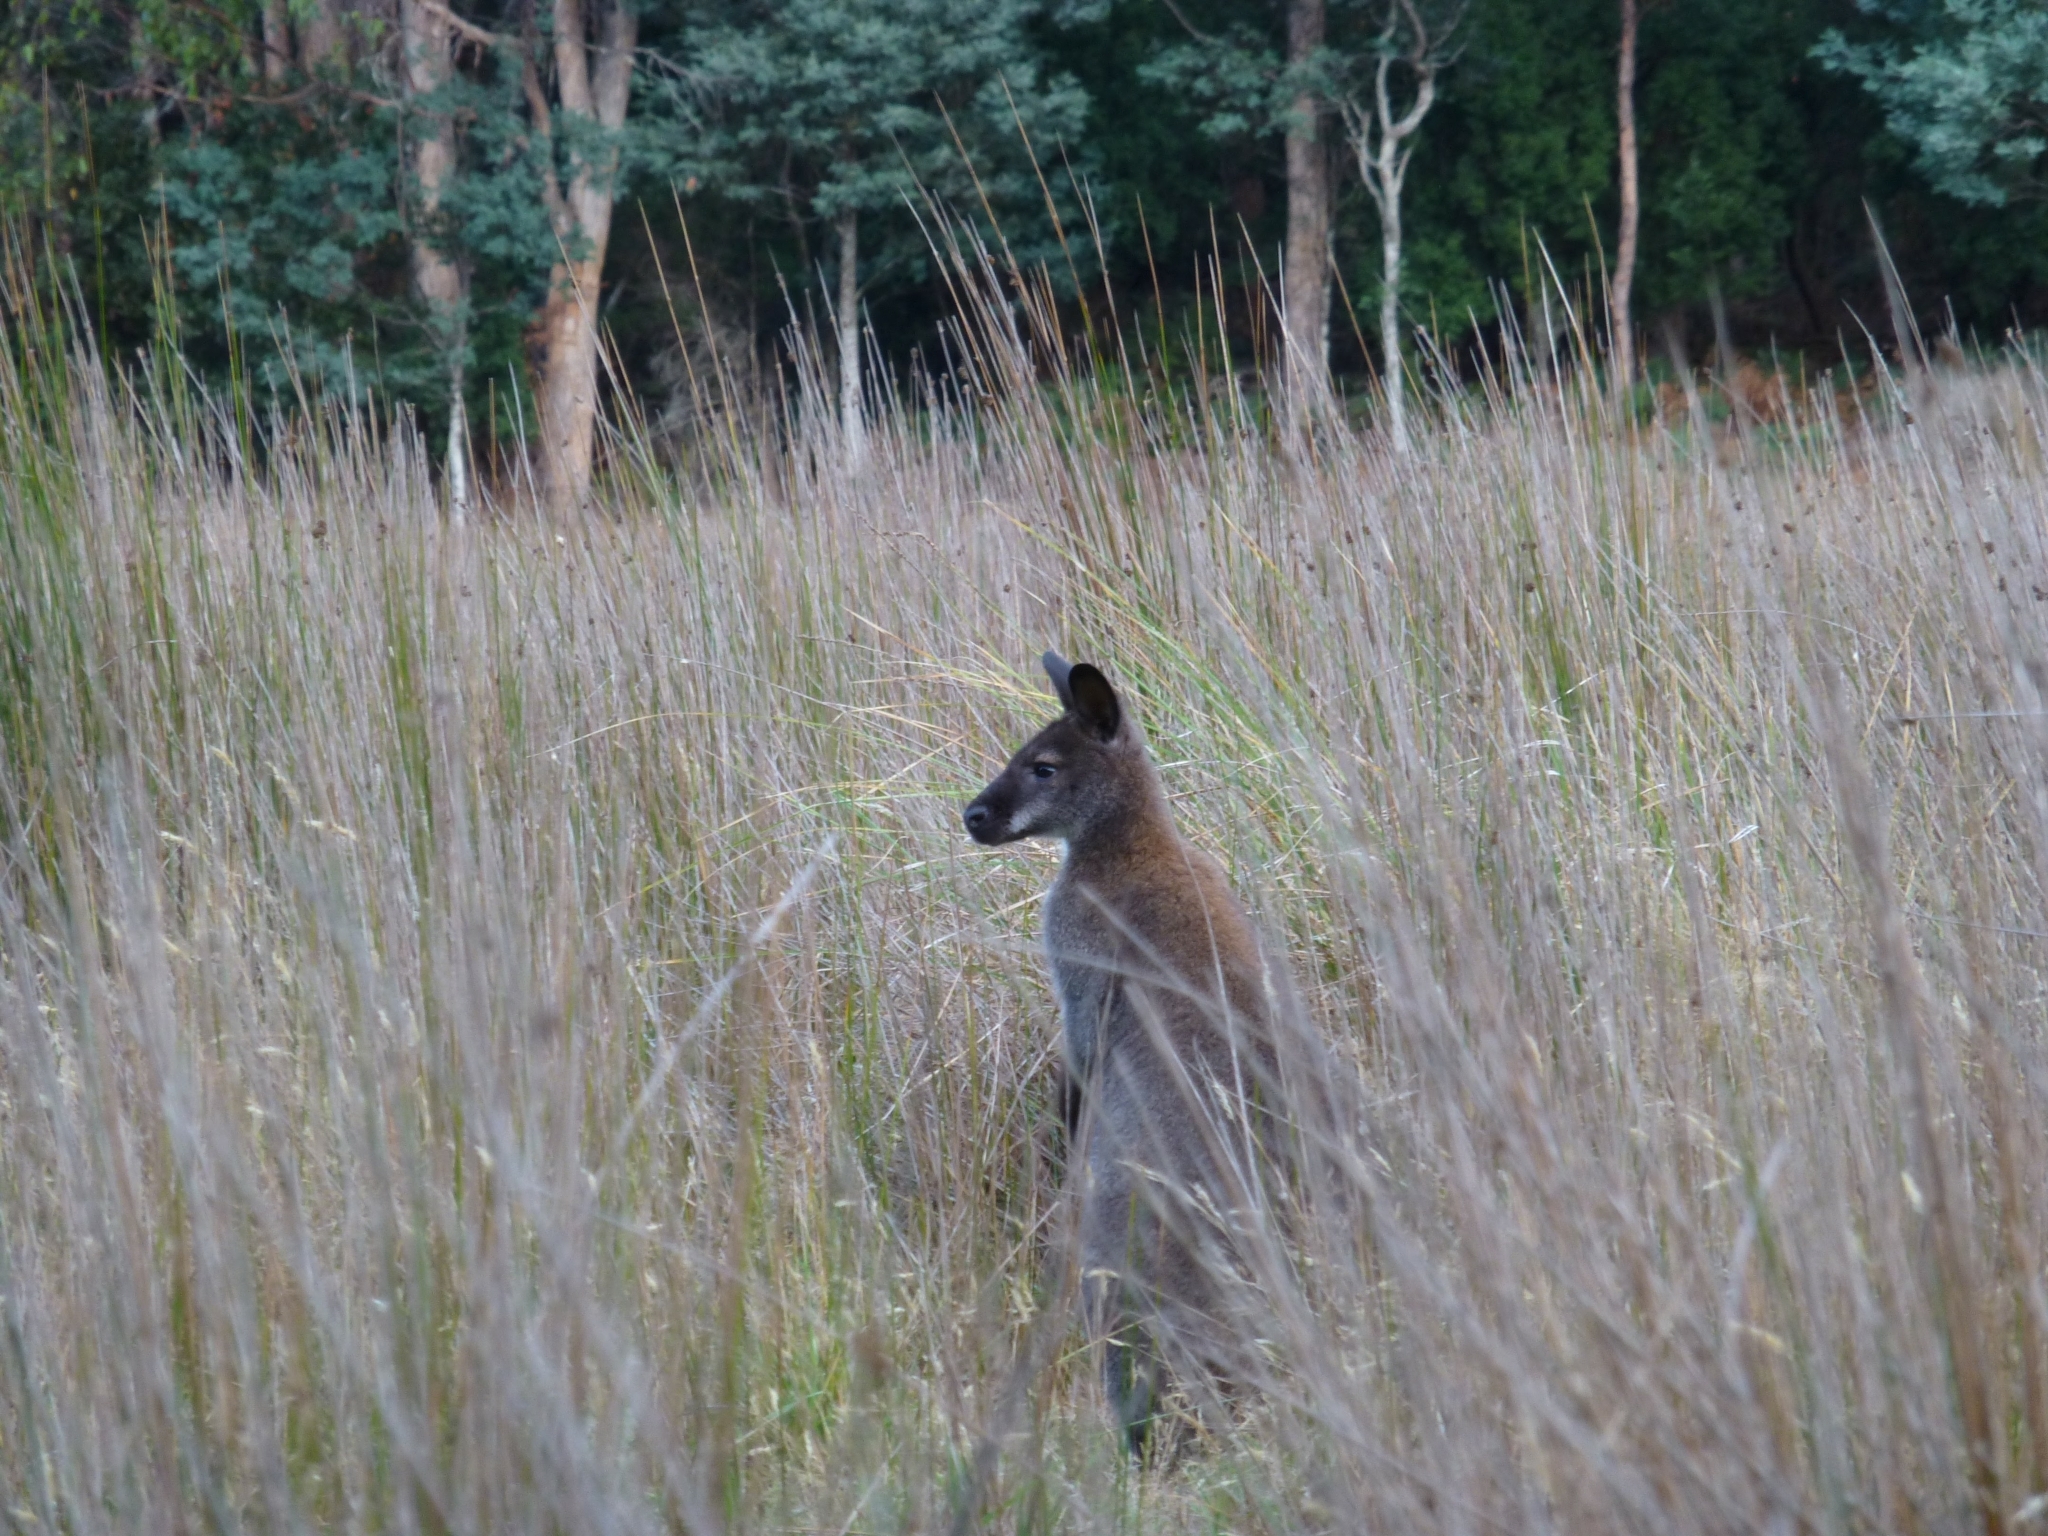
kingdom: Animalia
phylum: Chordata
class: Mammalia
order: Diprotodontia
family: Macropodidae
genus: Notamacropus
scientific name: Notamacropus rufogriseus
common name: Red-necked wallaby
